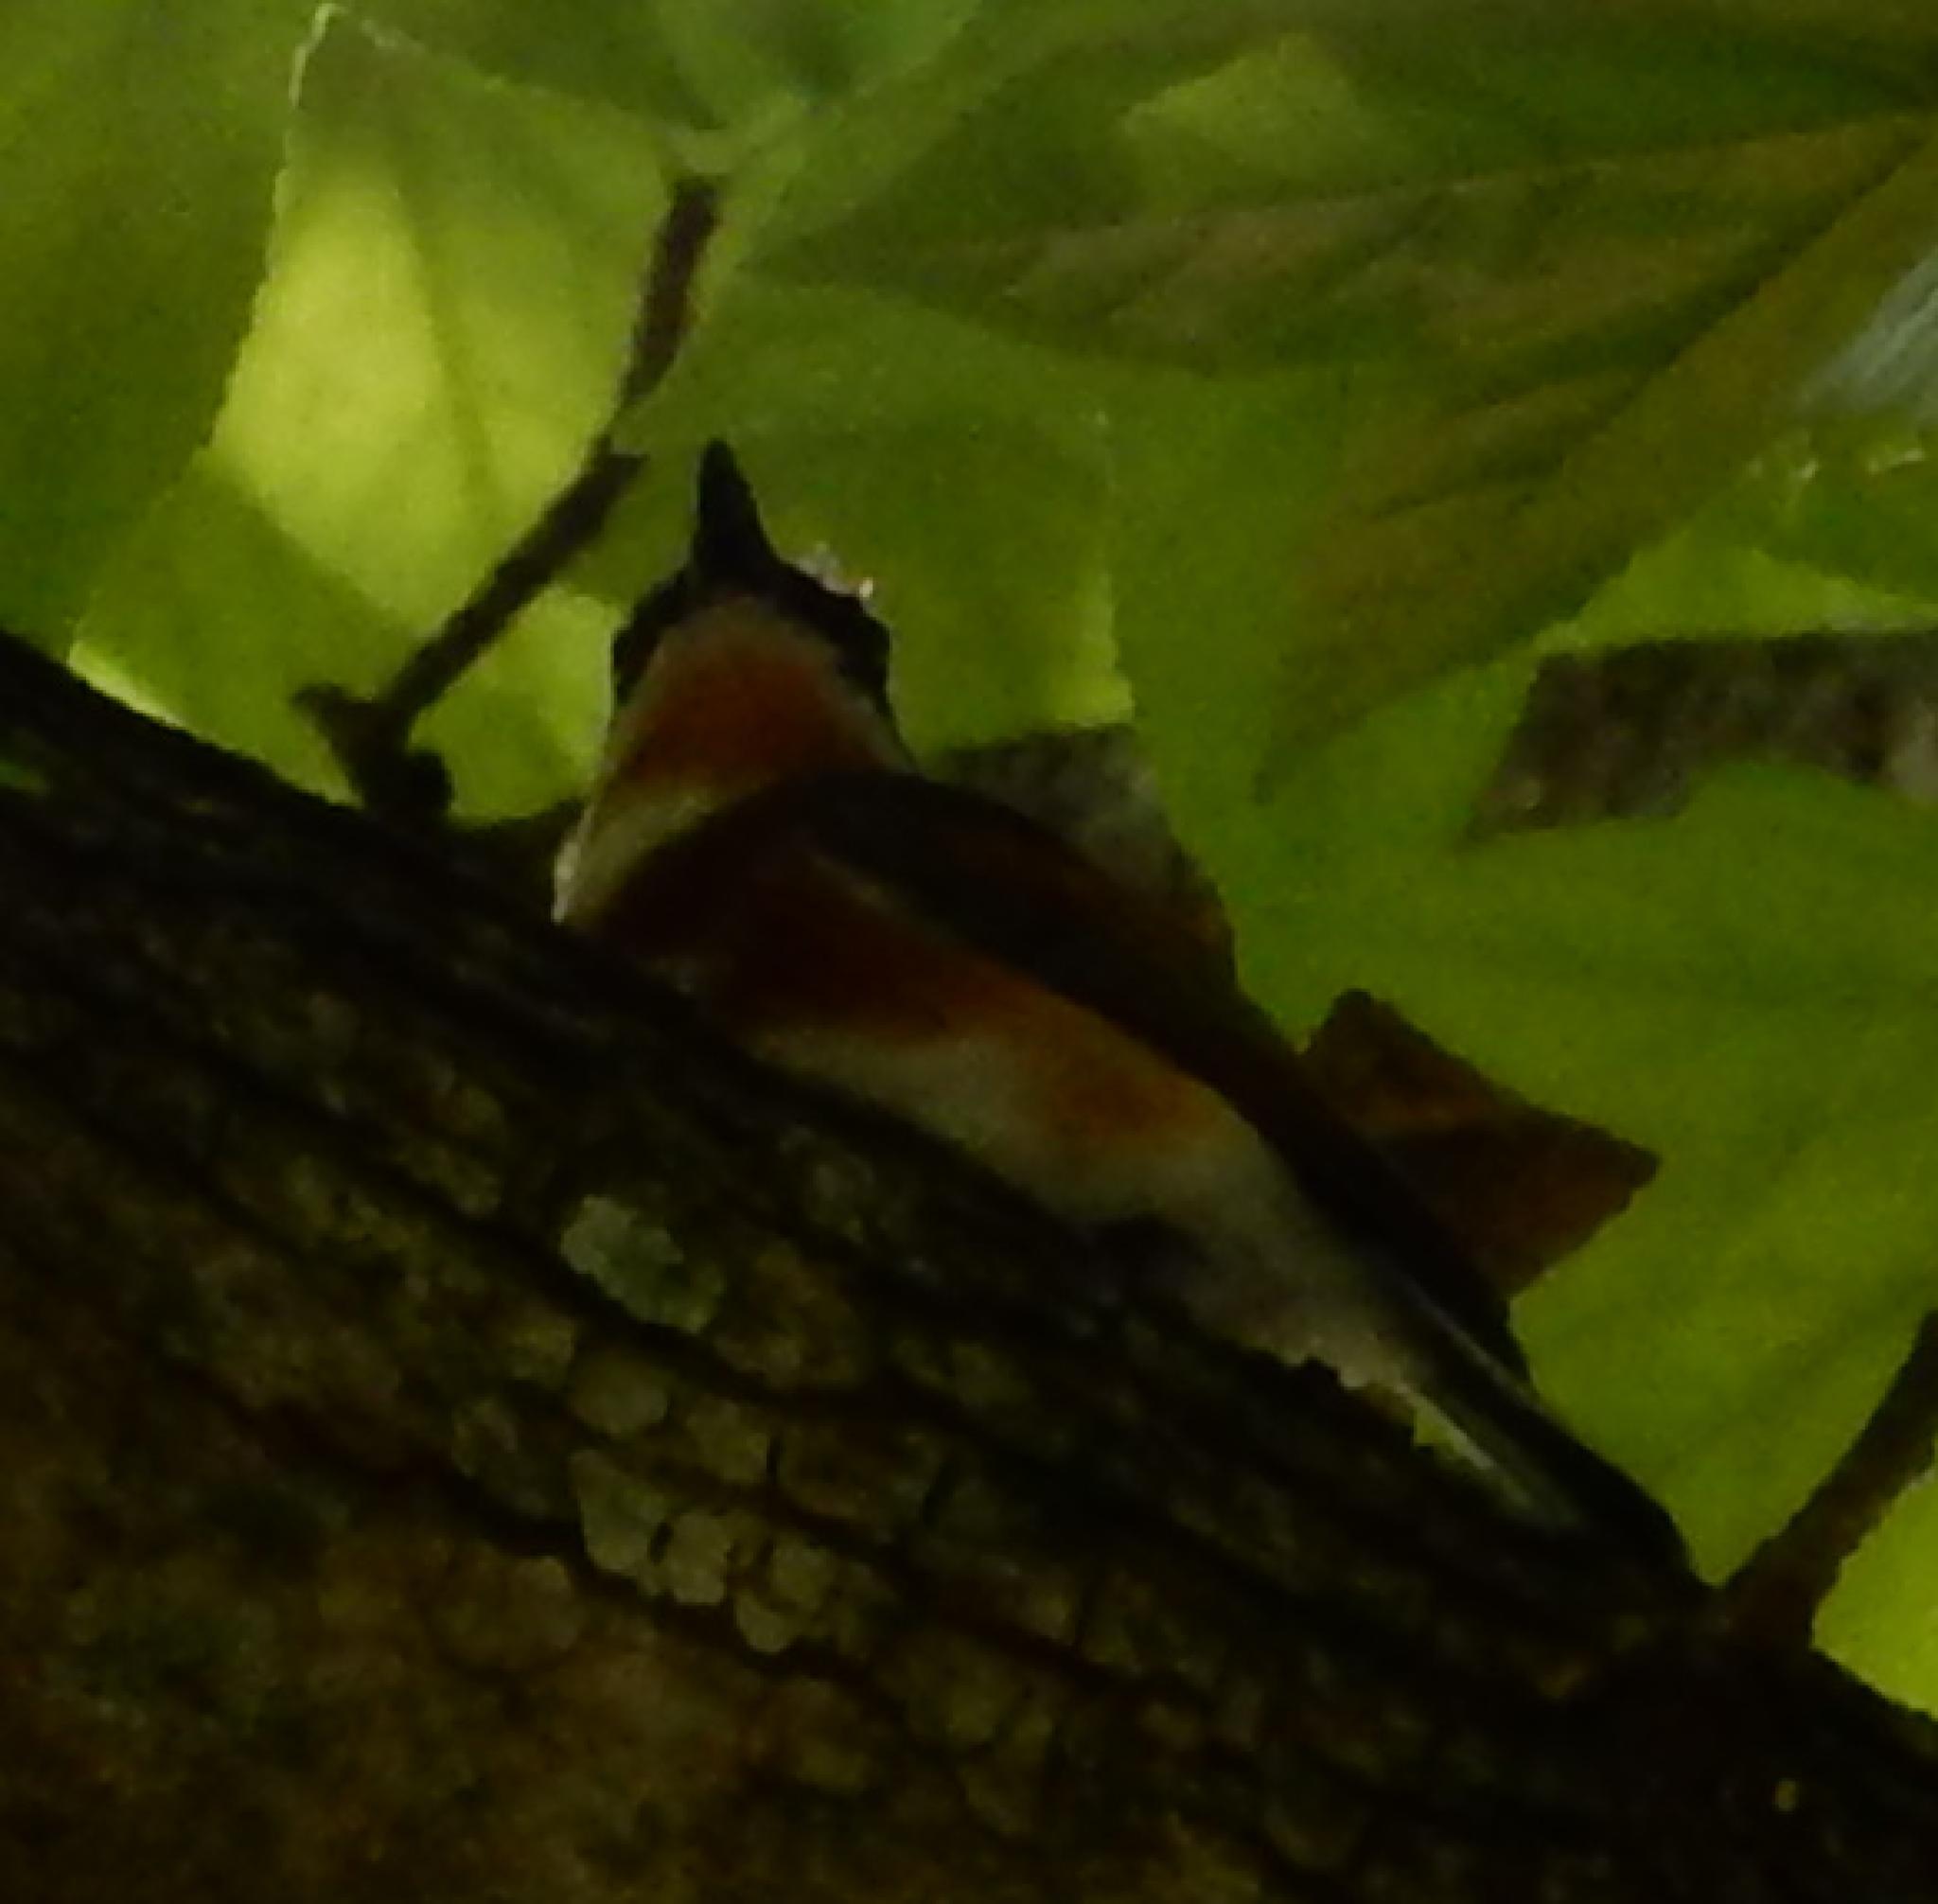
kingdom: Animalia
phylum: Chordata
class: Aves
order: Passeriformes
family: Platysteiridae
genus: Batis
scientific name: Batis capensis
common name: Cape batis
